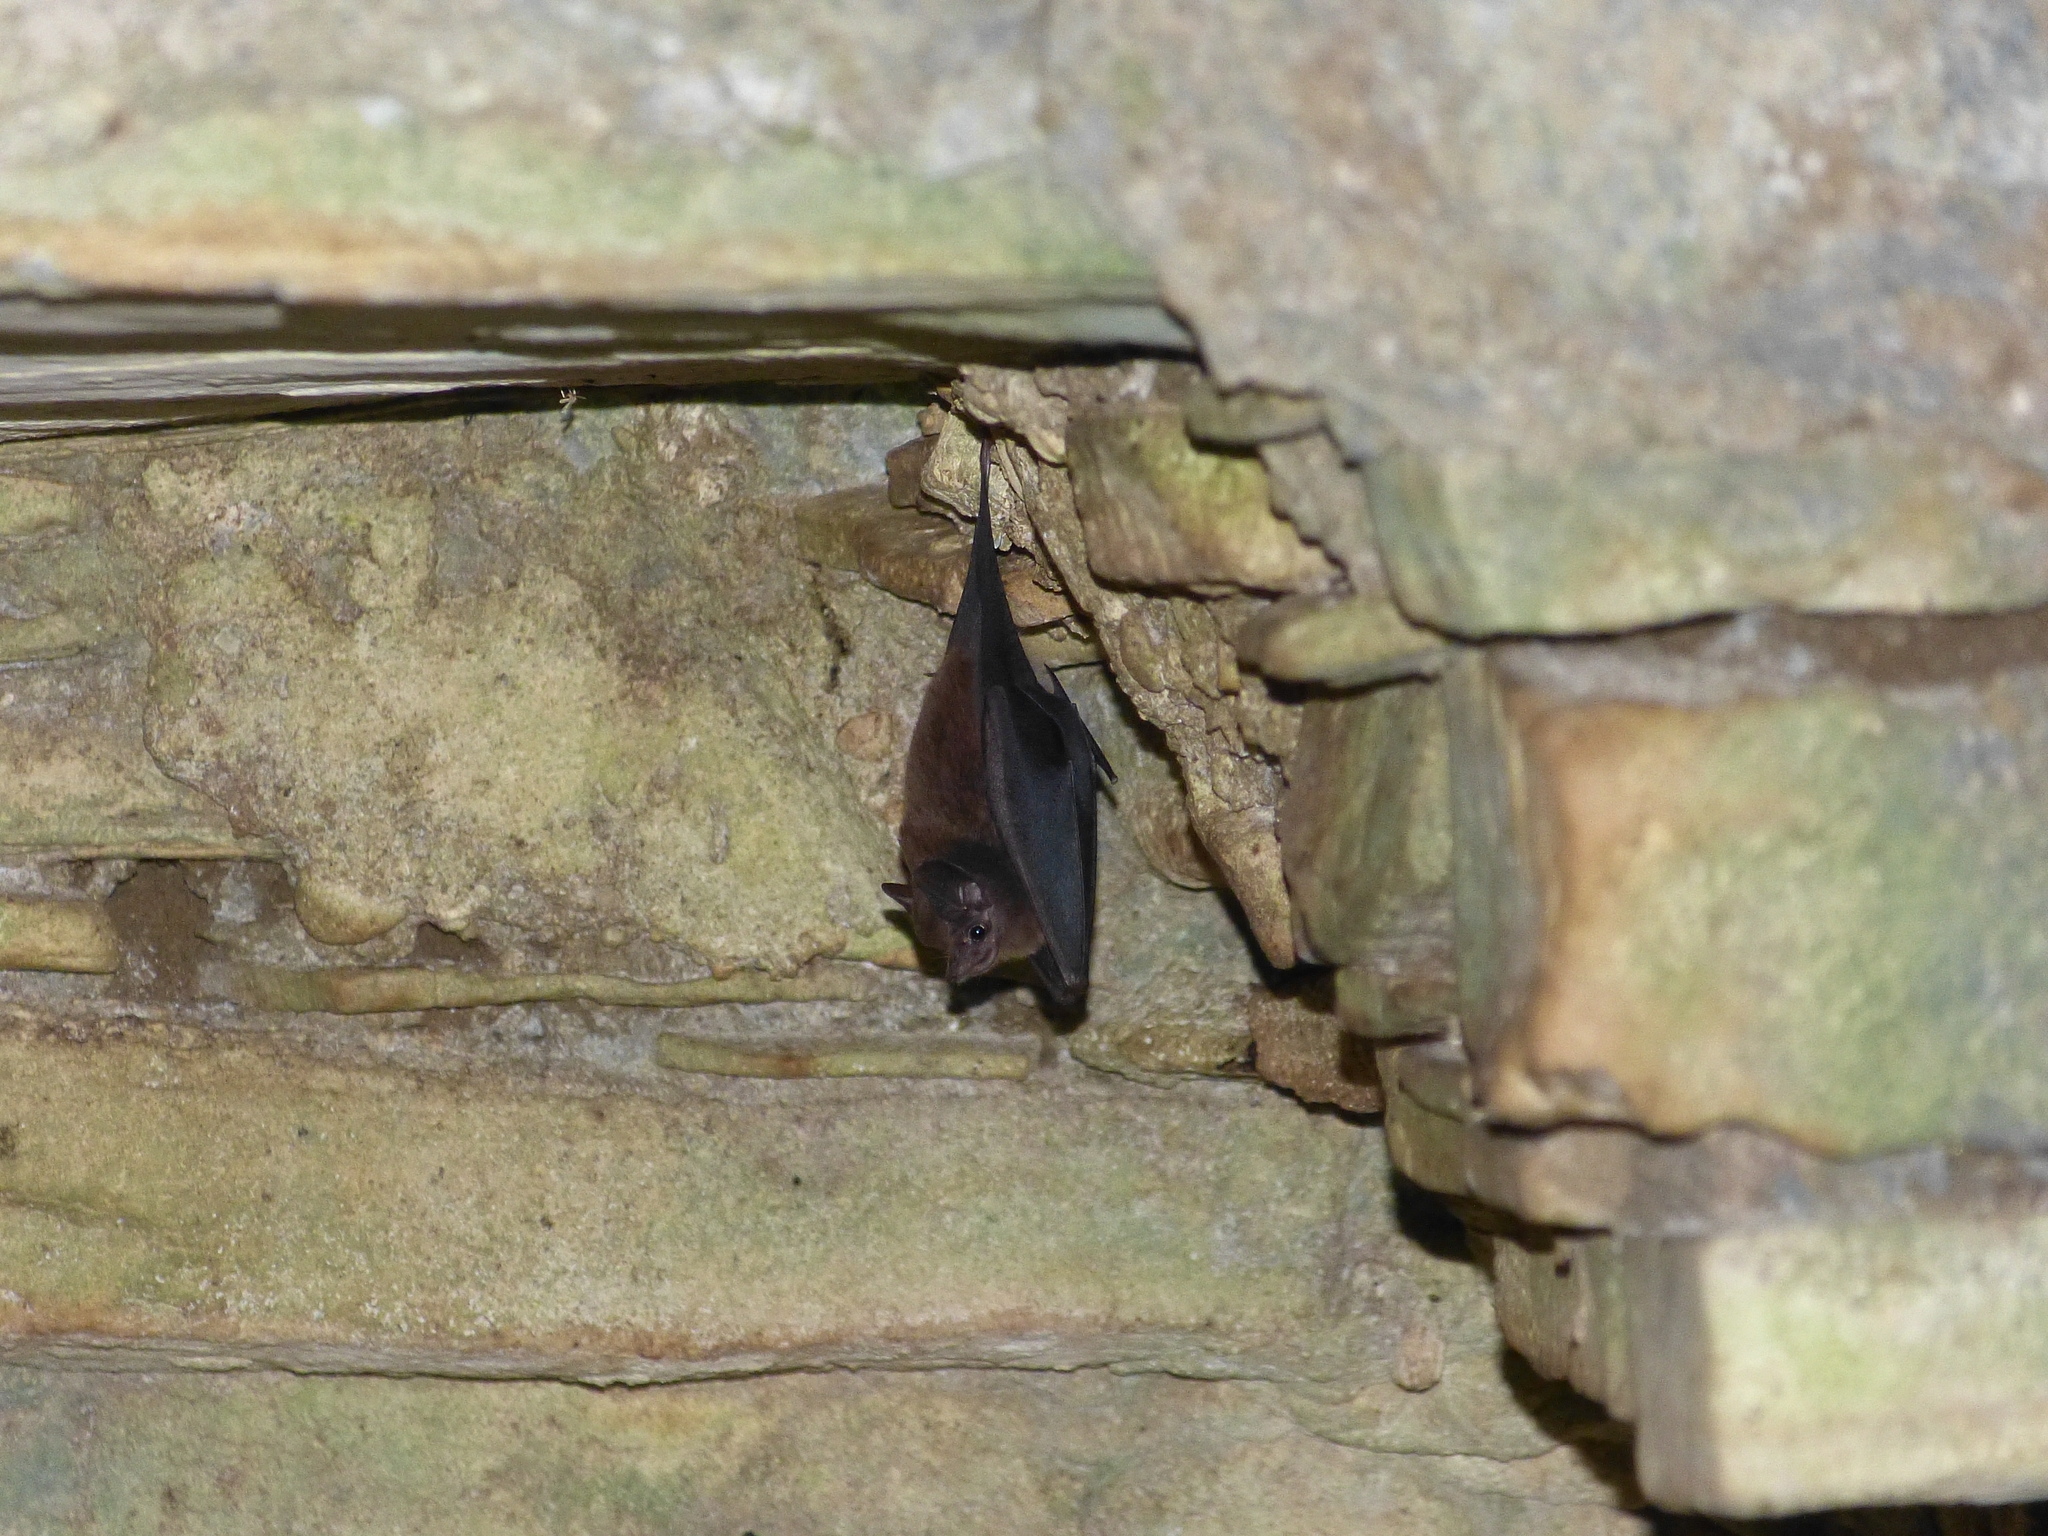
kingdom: Animalia
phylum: Chordata
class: Mammalia
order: Chiroptera
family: Emballonuridae
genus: Peropteryx
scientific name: Peropteryx macrotis
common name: Lesser dog-like bat
